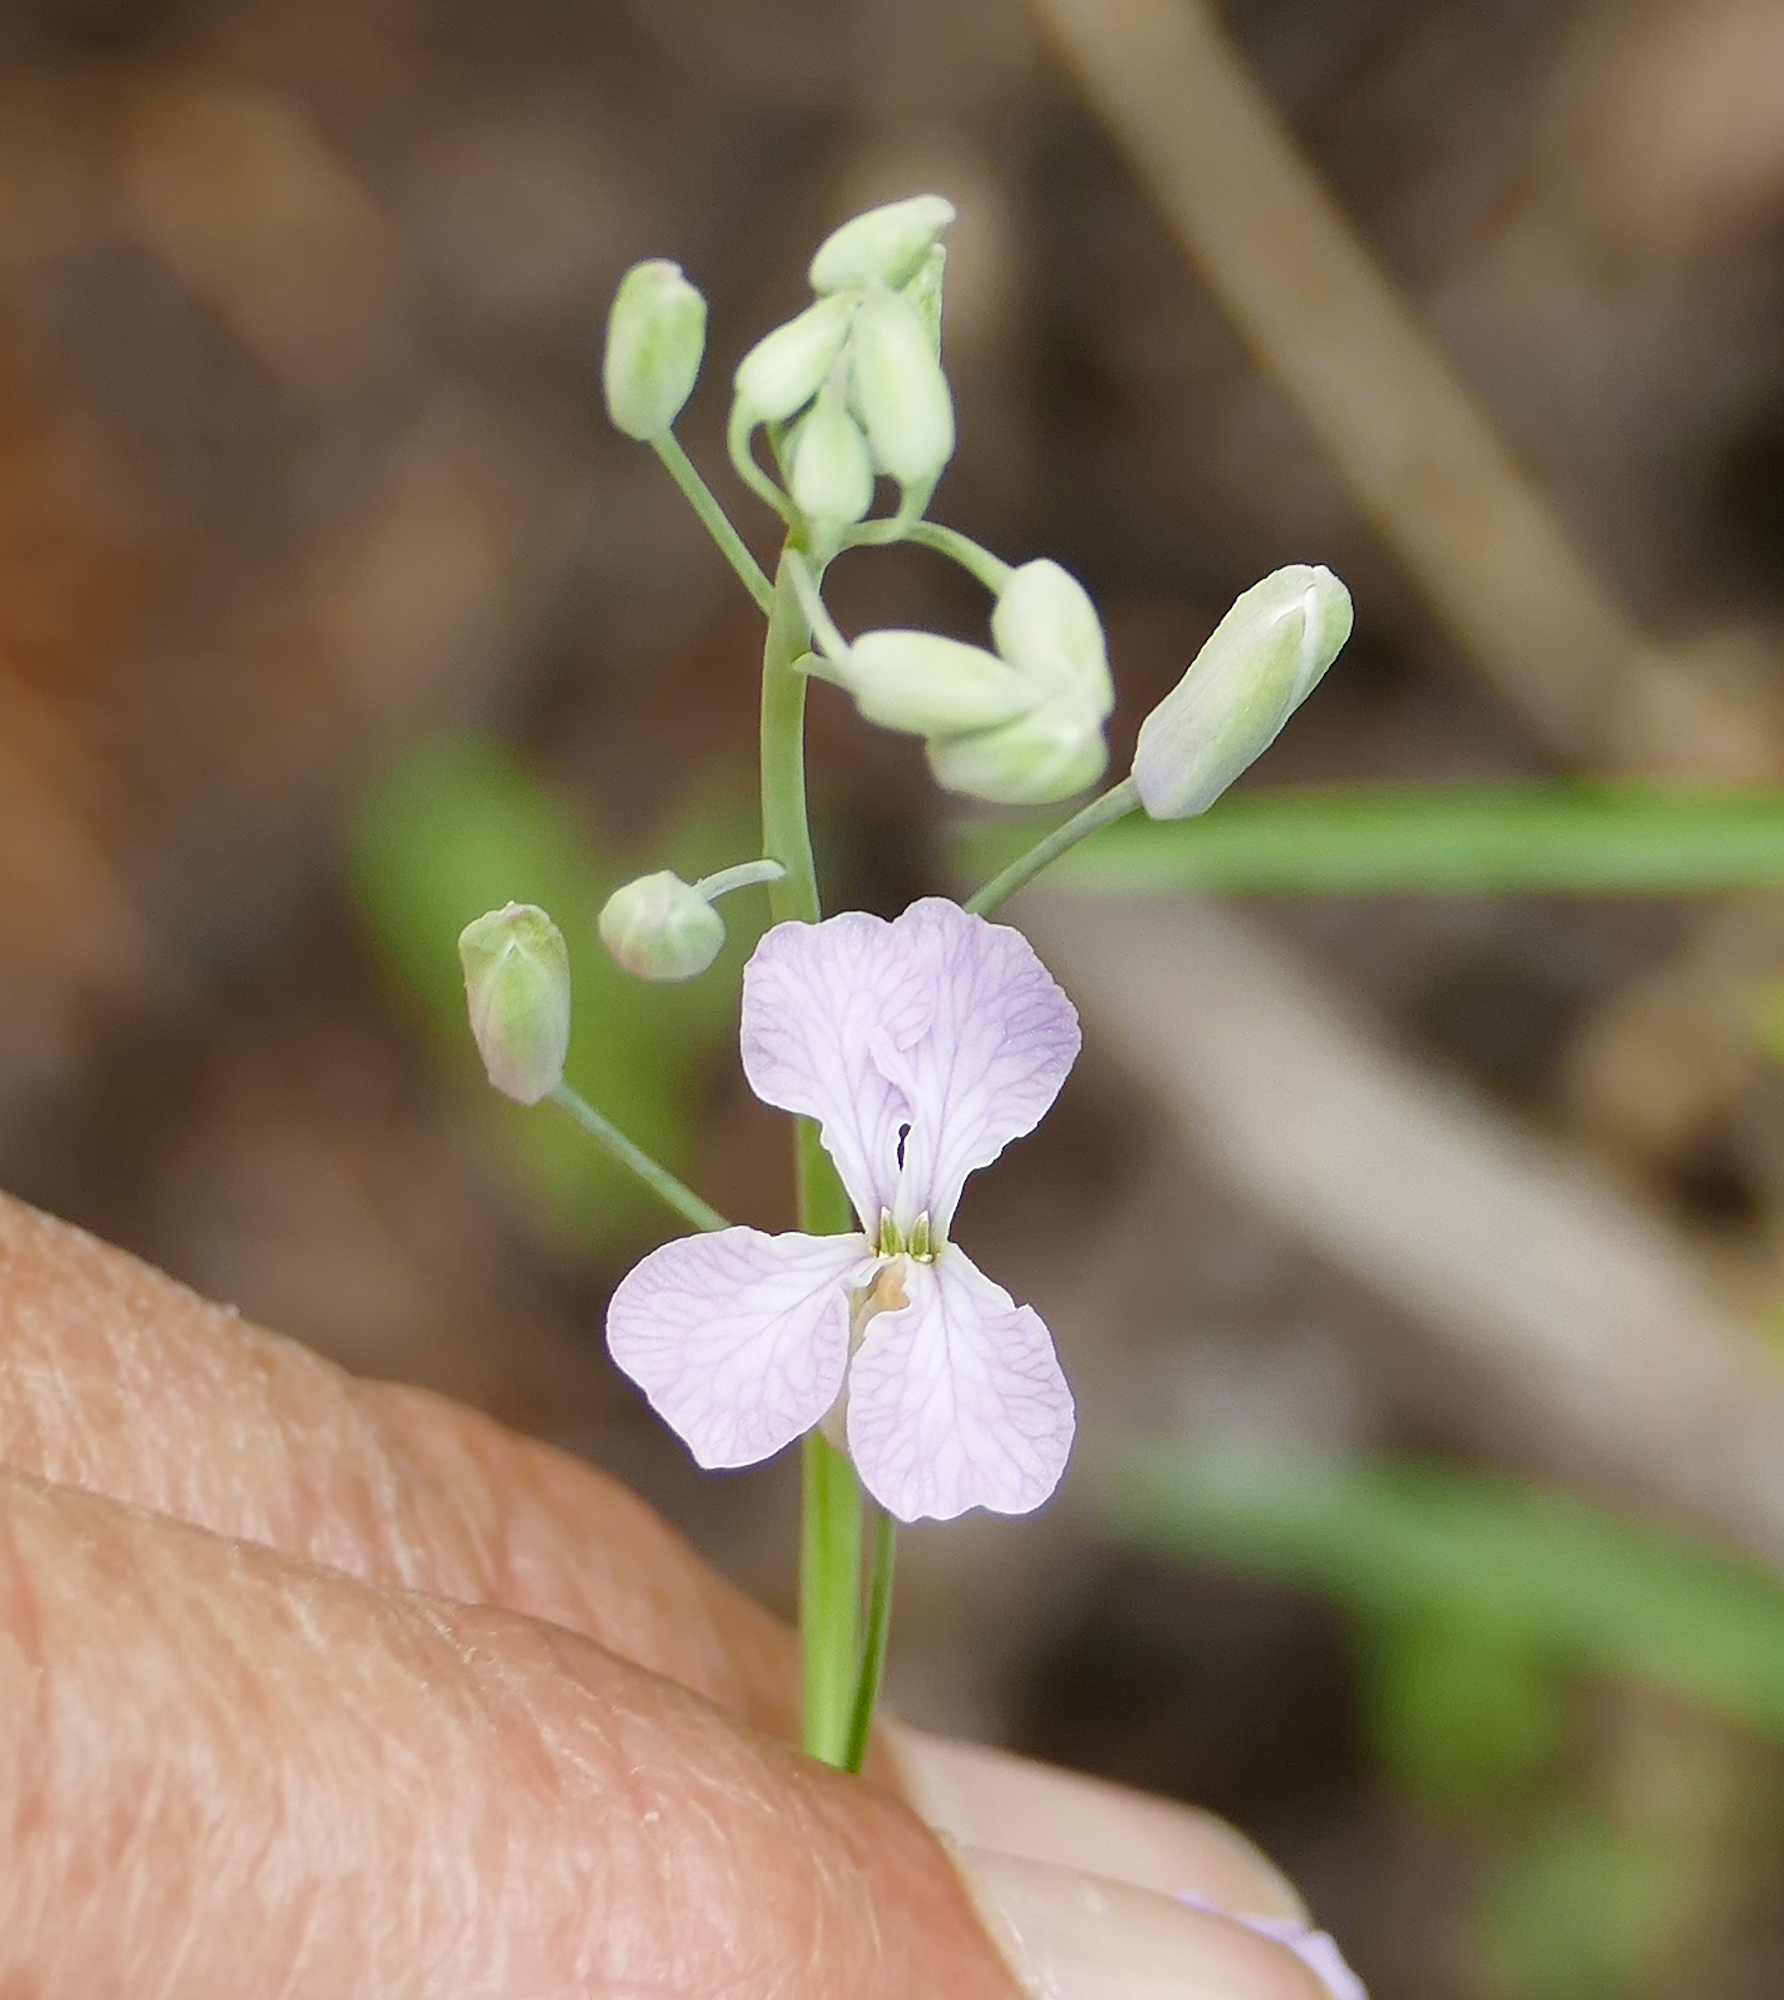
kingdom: Plantae
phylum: Tracheophyta
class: Magnoliopsida
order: Brassicales
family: Brassicaceae
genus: Hesperidanthus
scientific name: Hesperidanthus linearifolius
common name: Slim-leaf plains mustard
